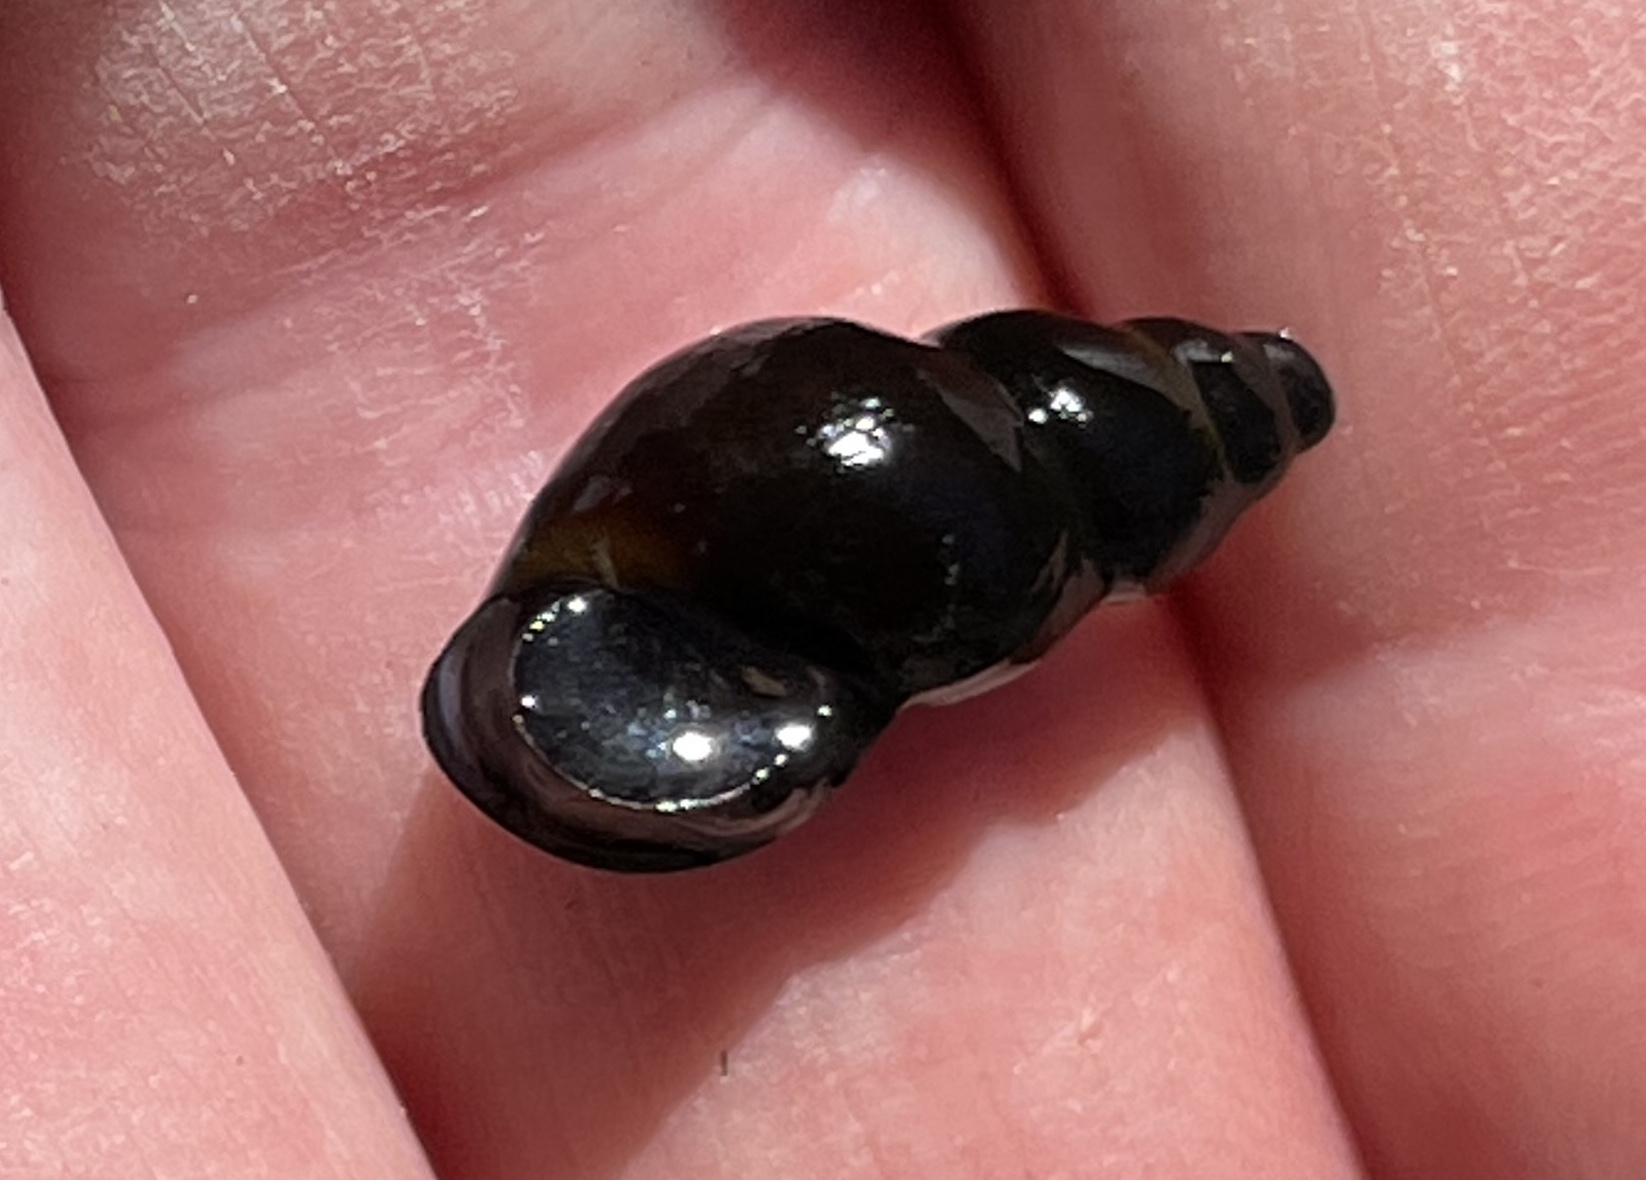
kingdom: Animalia
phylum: Mollusca
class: Gastropoda
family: Semisulcospiridae
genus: Juga
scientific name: Juga canella
